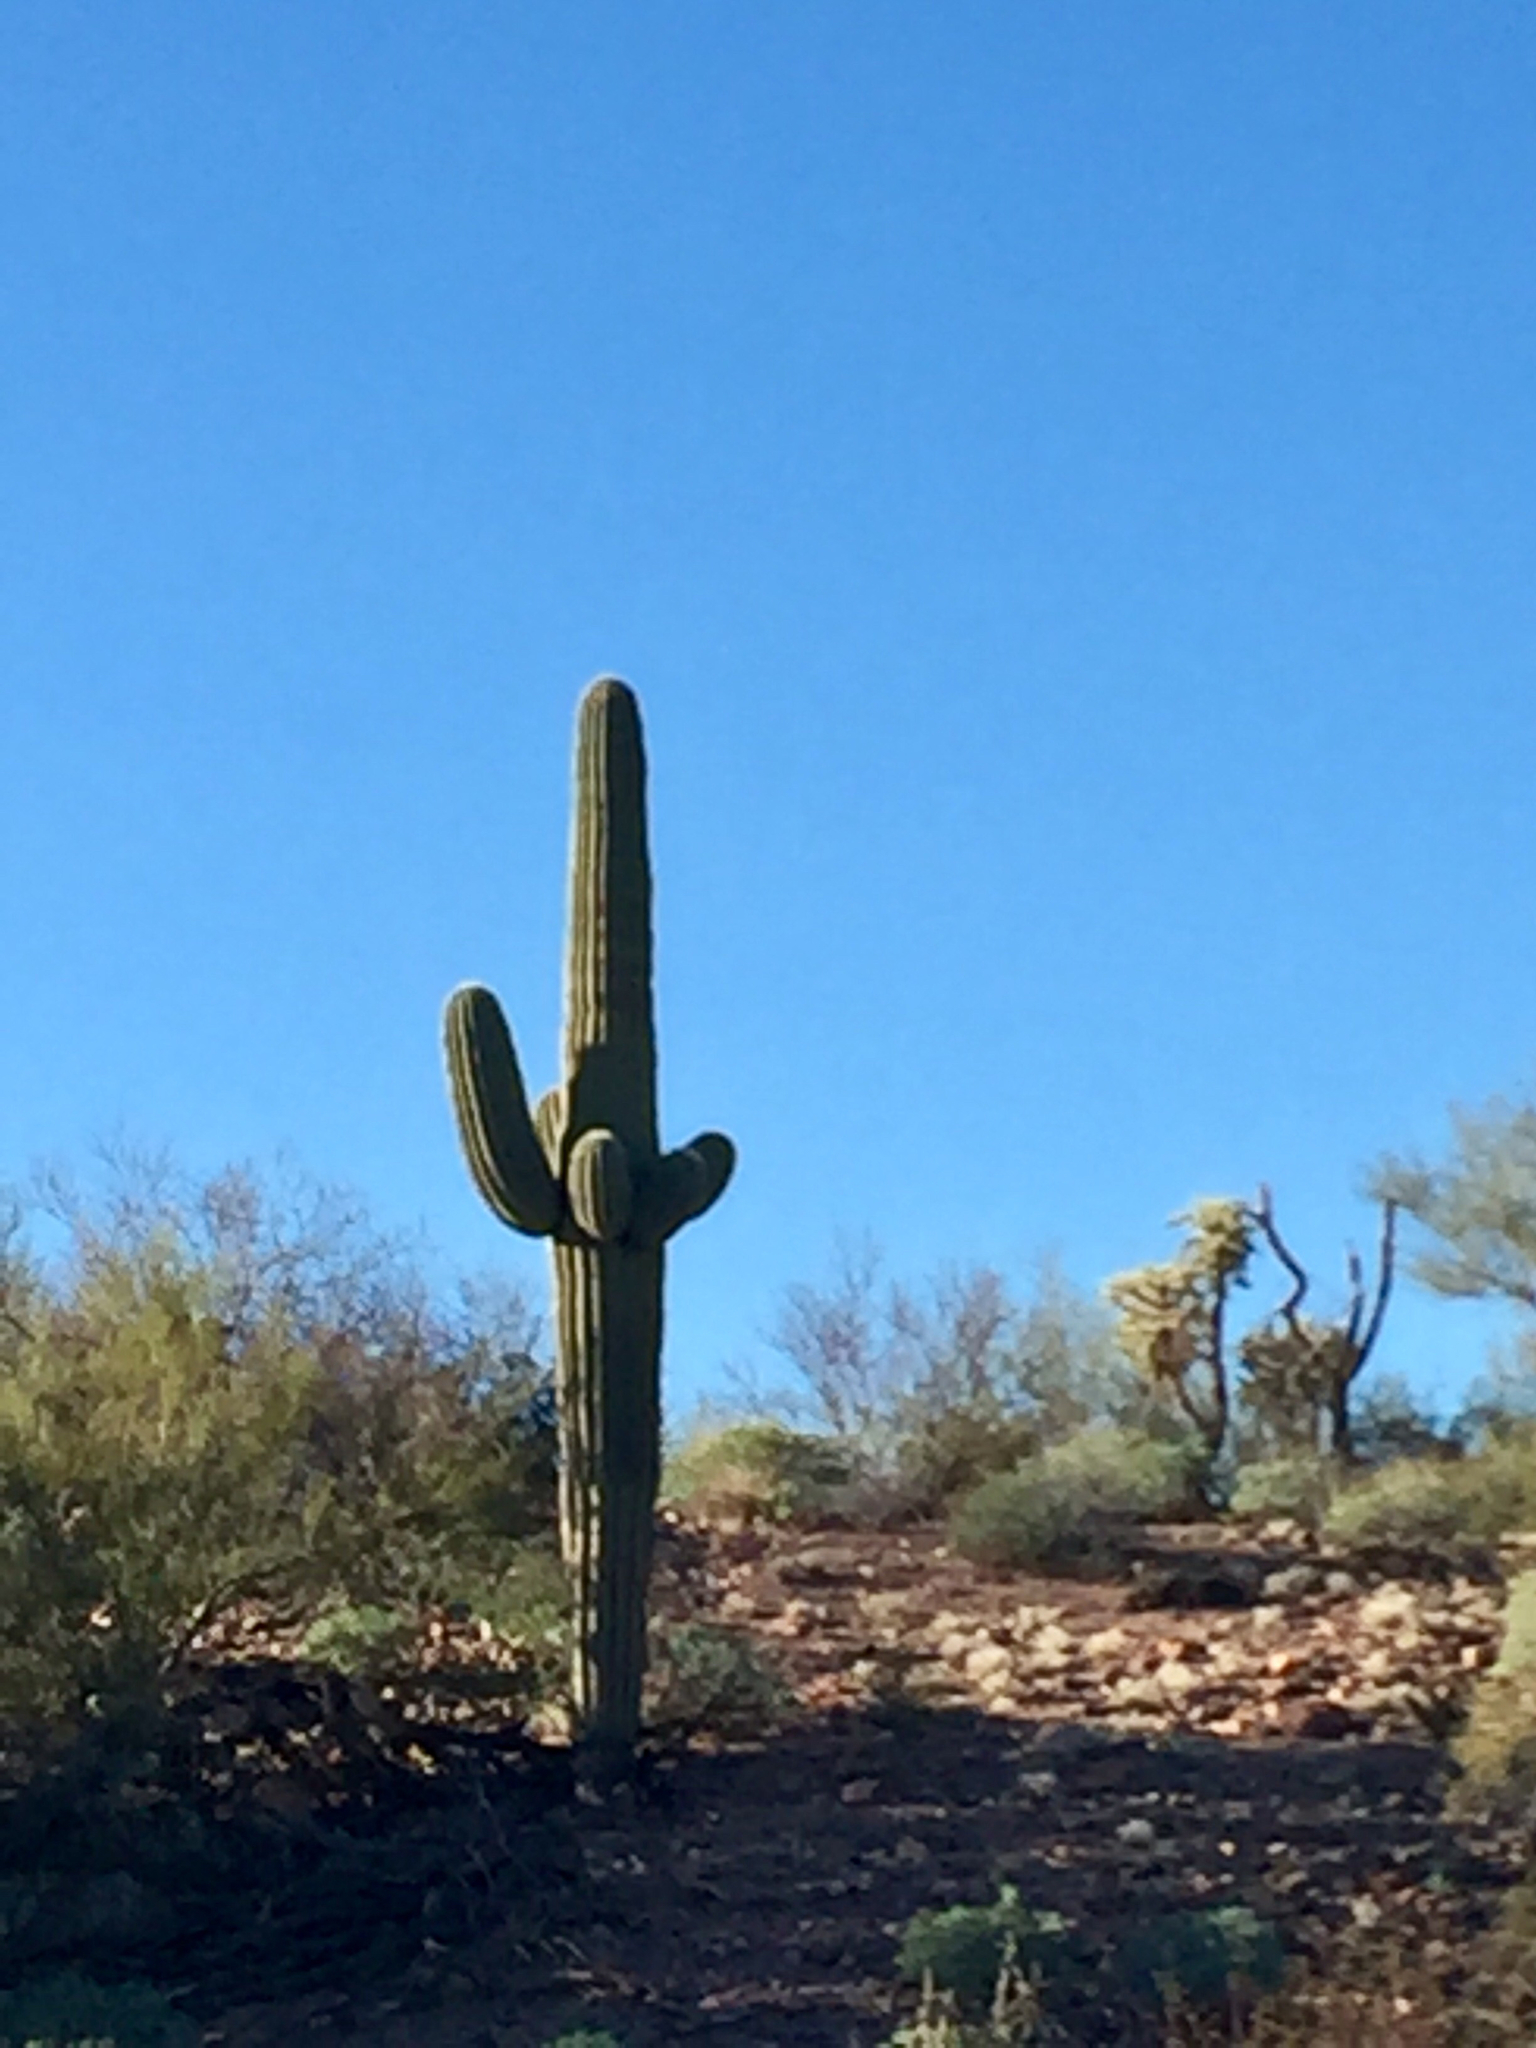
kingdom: Plantae
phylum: Tracheophyta
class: Magnoliopsida
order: Caryophyllales
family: Cactaceae
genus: Carnegiea
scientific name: Carnegiea gigantea
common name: Saguaro
